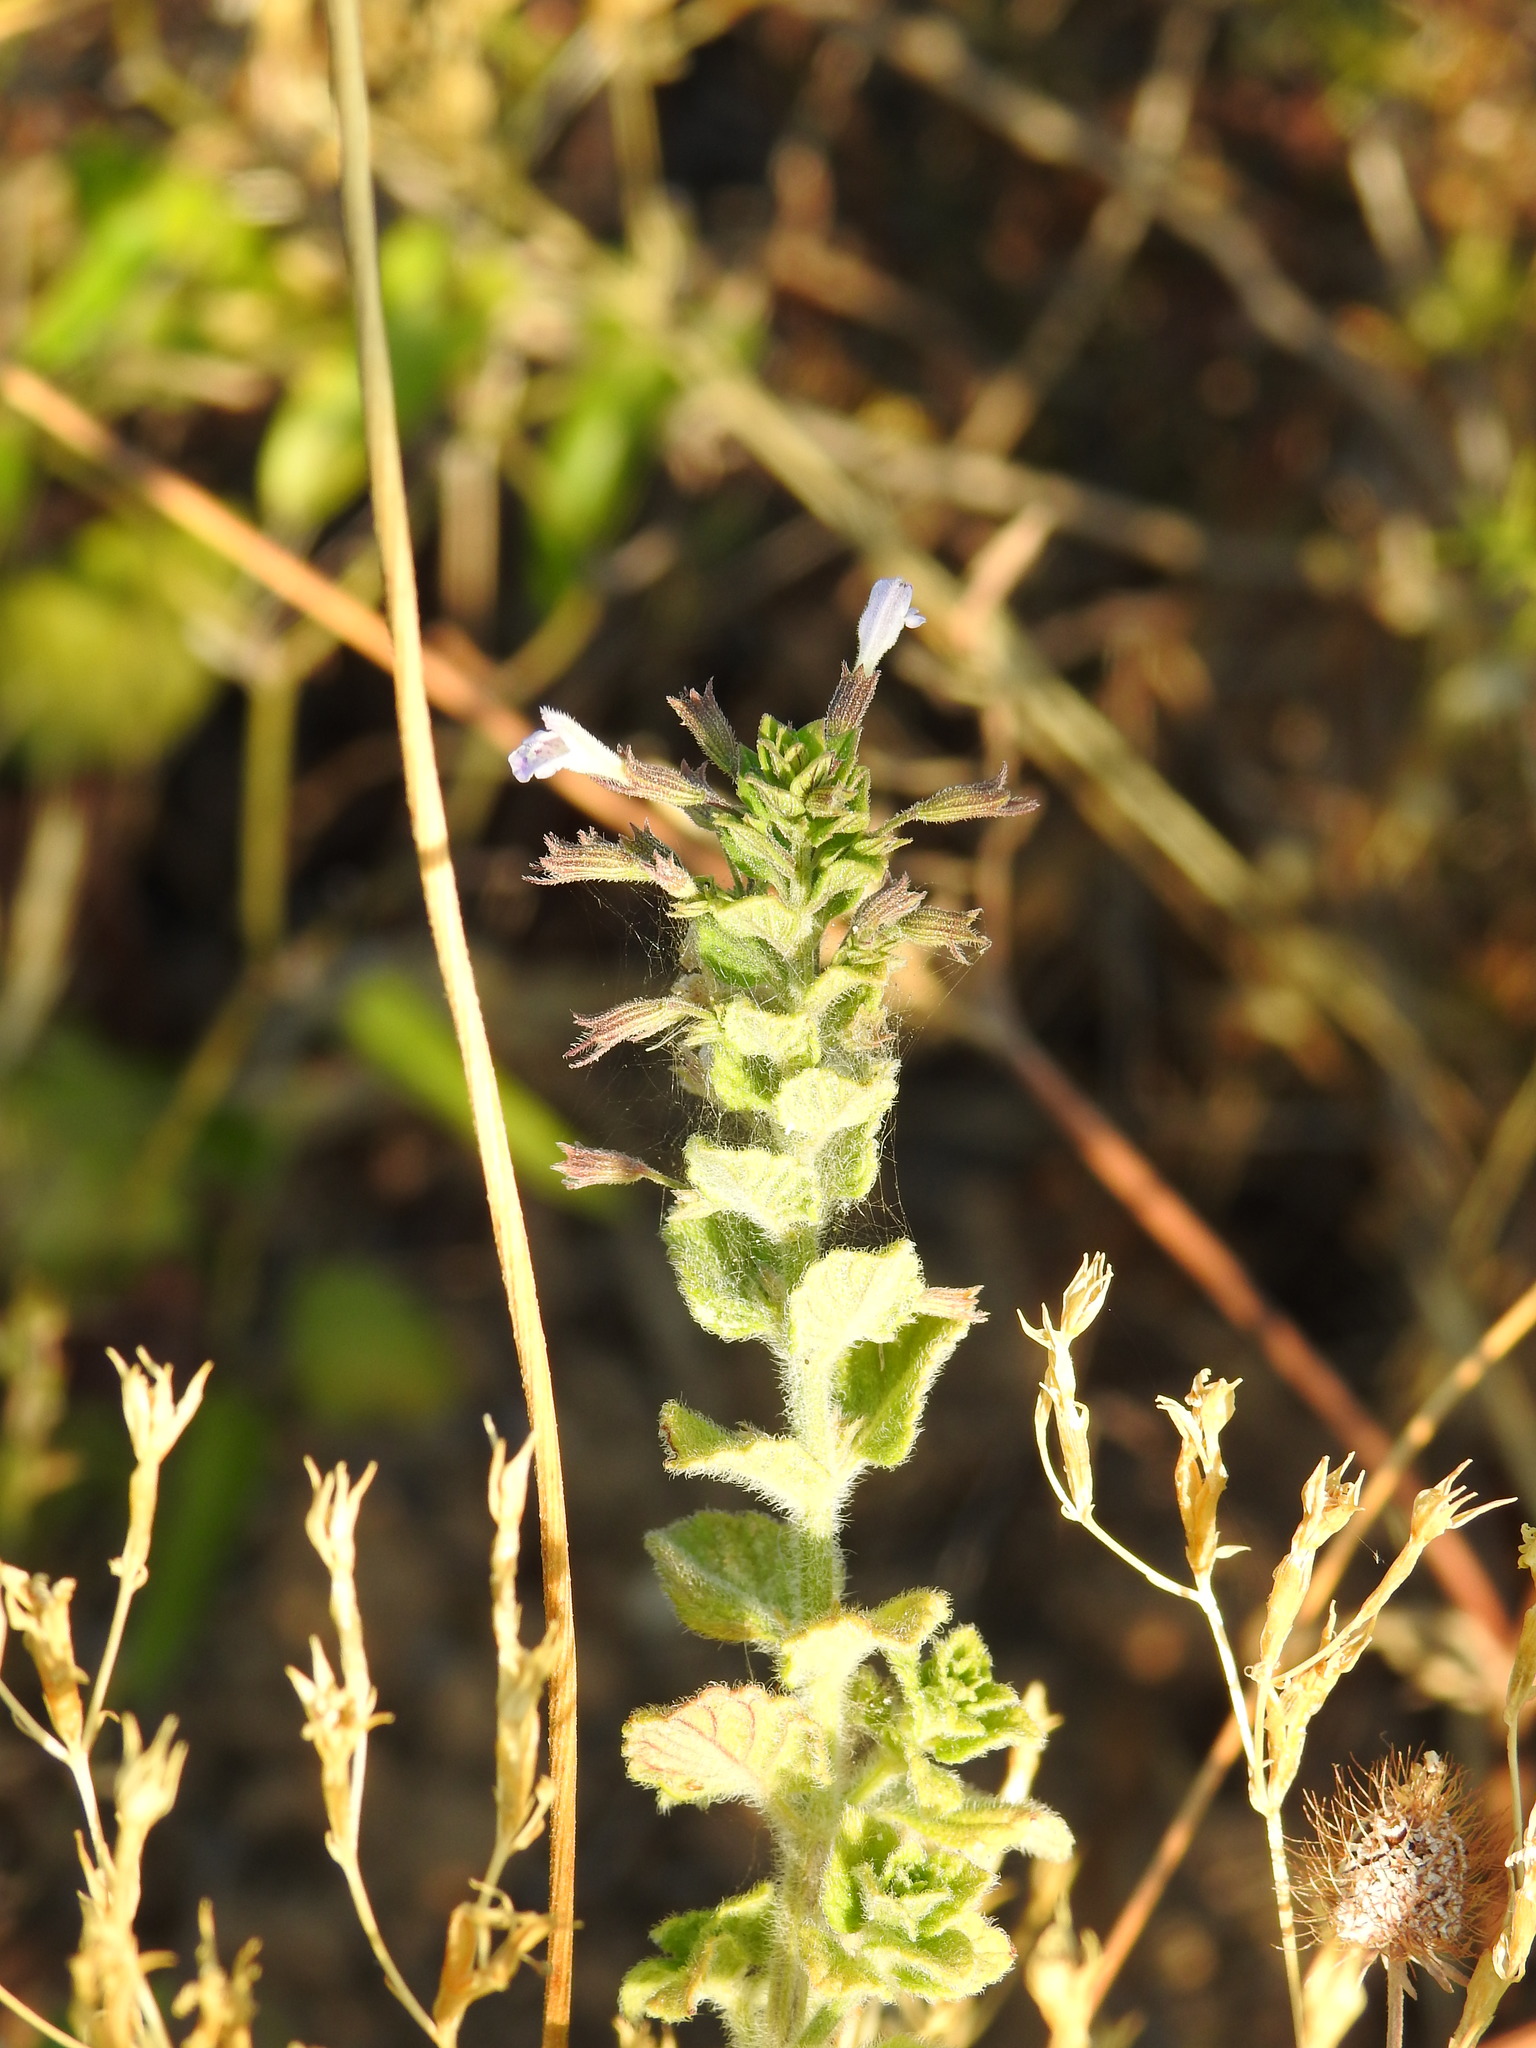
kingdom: Plantae
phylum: Tracheophyta
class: Magnoliopsida
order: Lamiales
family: Lamiaceae
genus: Clinopodium
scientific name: Clinopodium nepeta
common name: Lesser calamint
